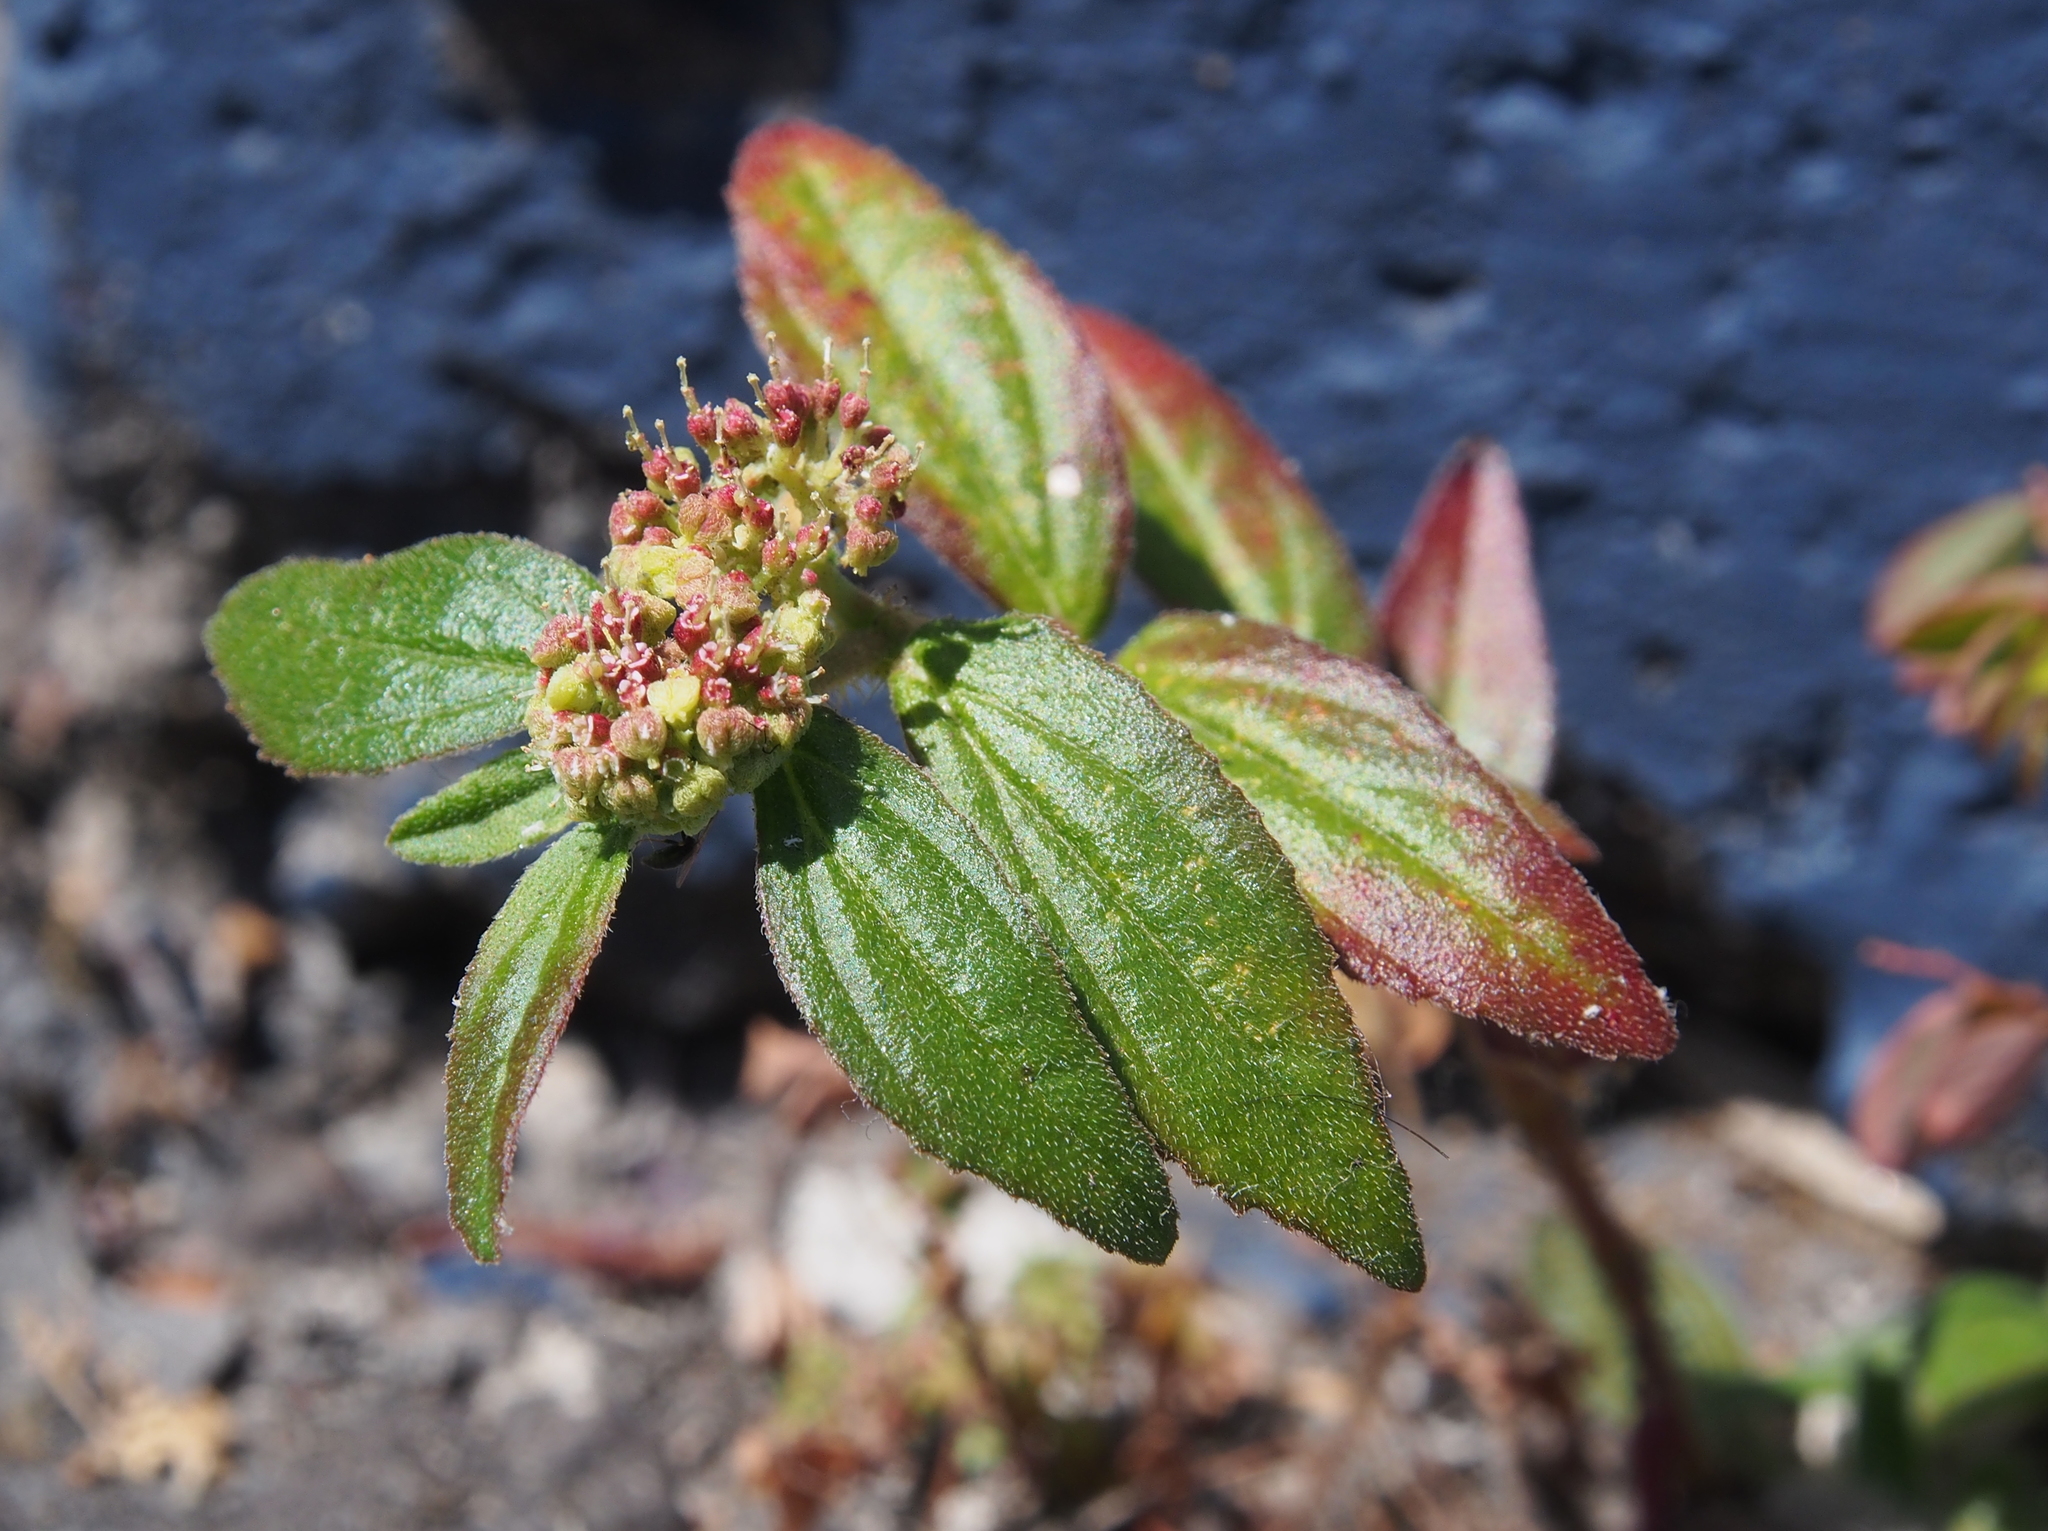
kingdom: Plantae
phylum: Tracheophyta
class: Magnoliopsida
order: Malpighiales
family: Euphorbiaceae
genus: Euphorbia
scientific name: Euphorbia hirta
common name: Pillpod sandmat
